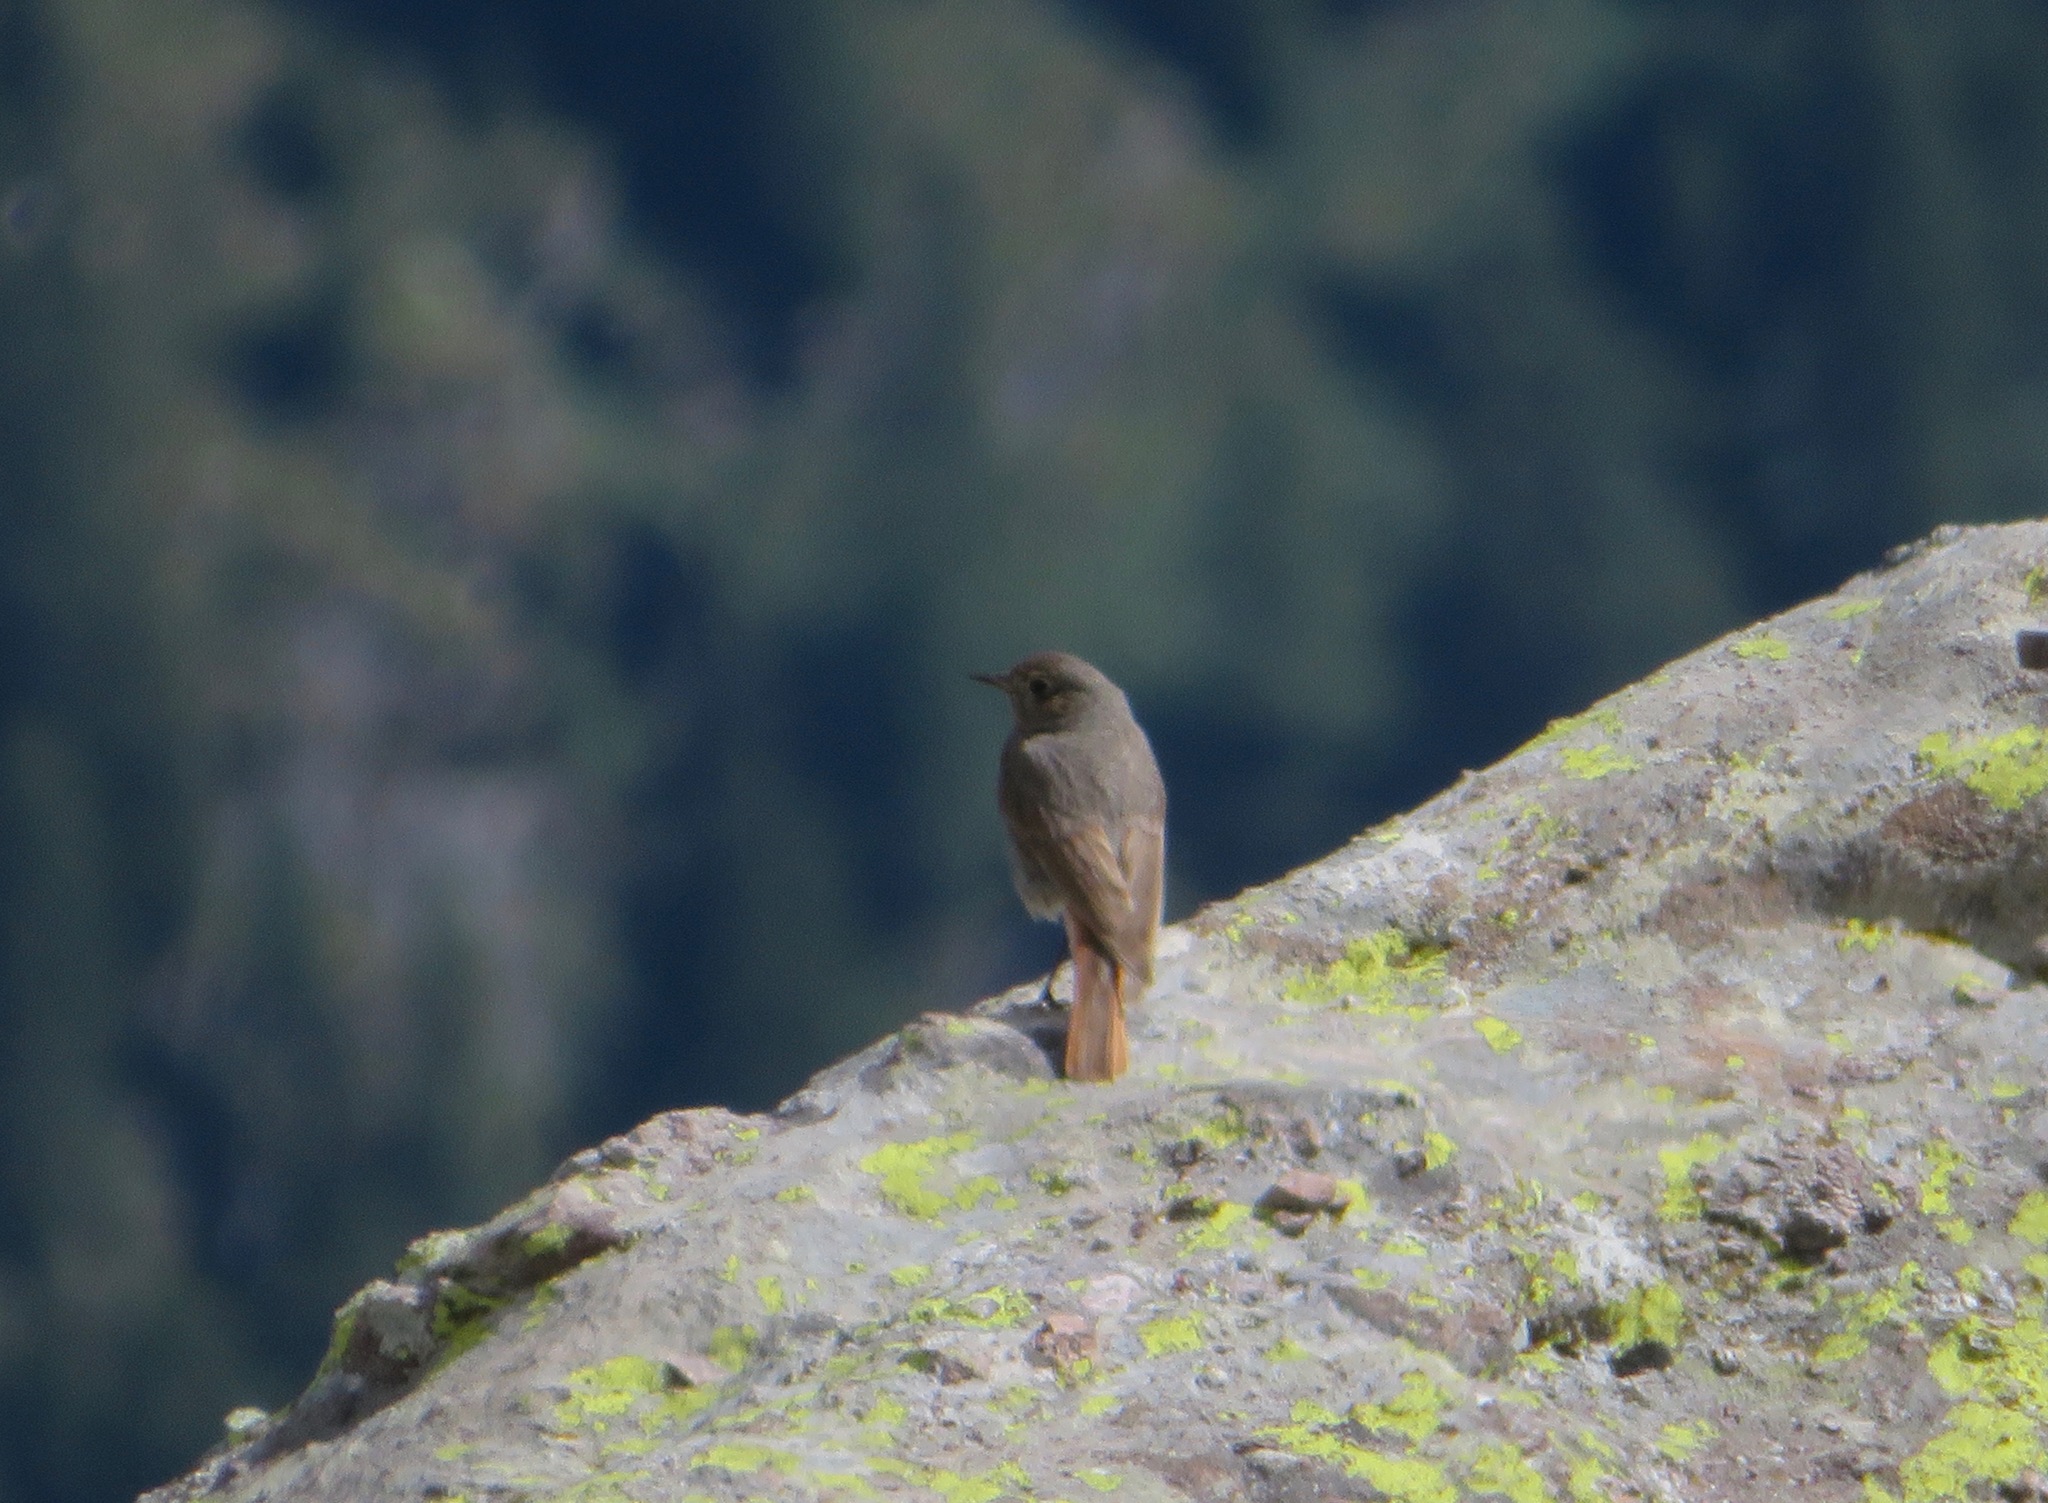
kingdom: Animalia
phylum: Chordata
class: Aves
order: Passeriformes
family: Muscicapidae
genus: Phoenicurus
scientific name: Phoenicurus ochruros
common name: Black redstart
